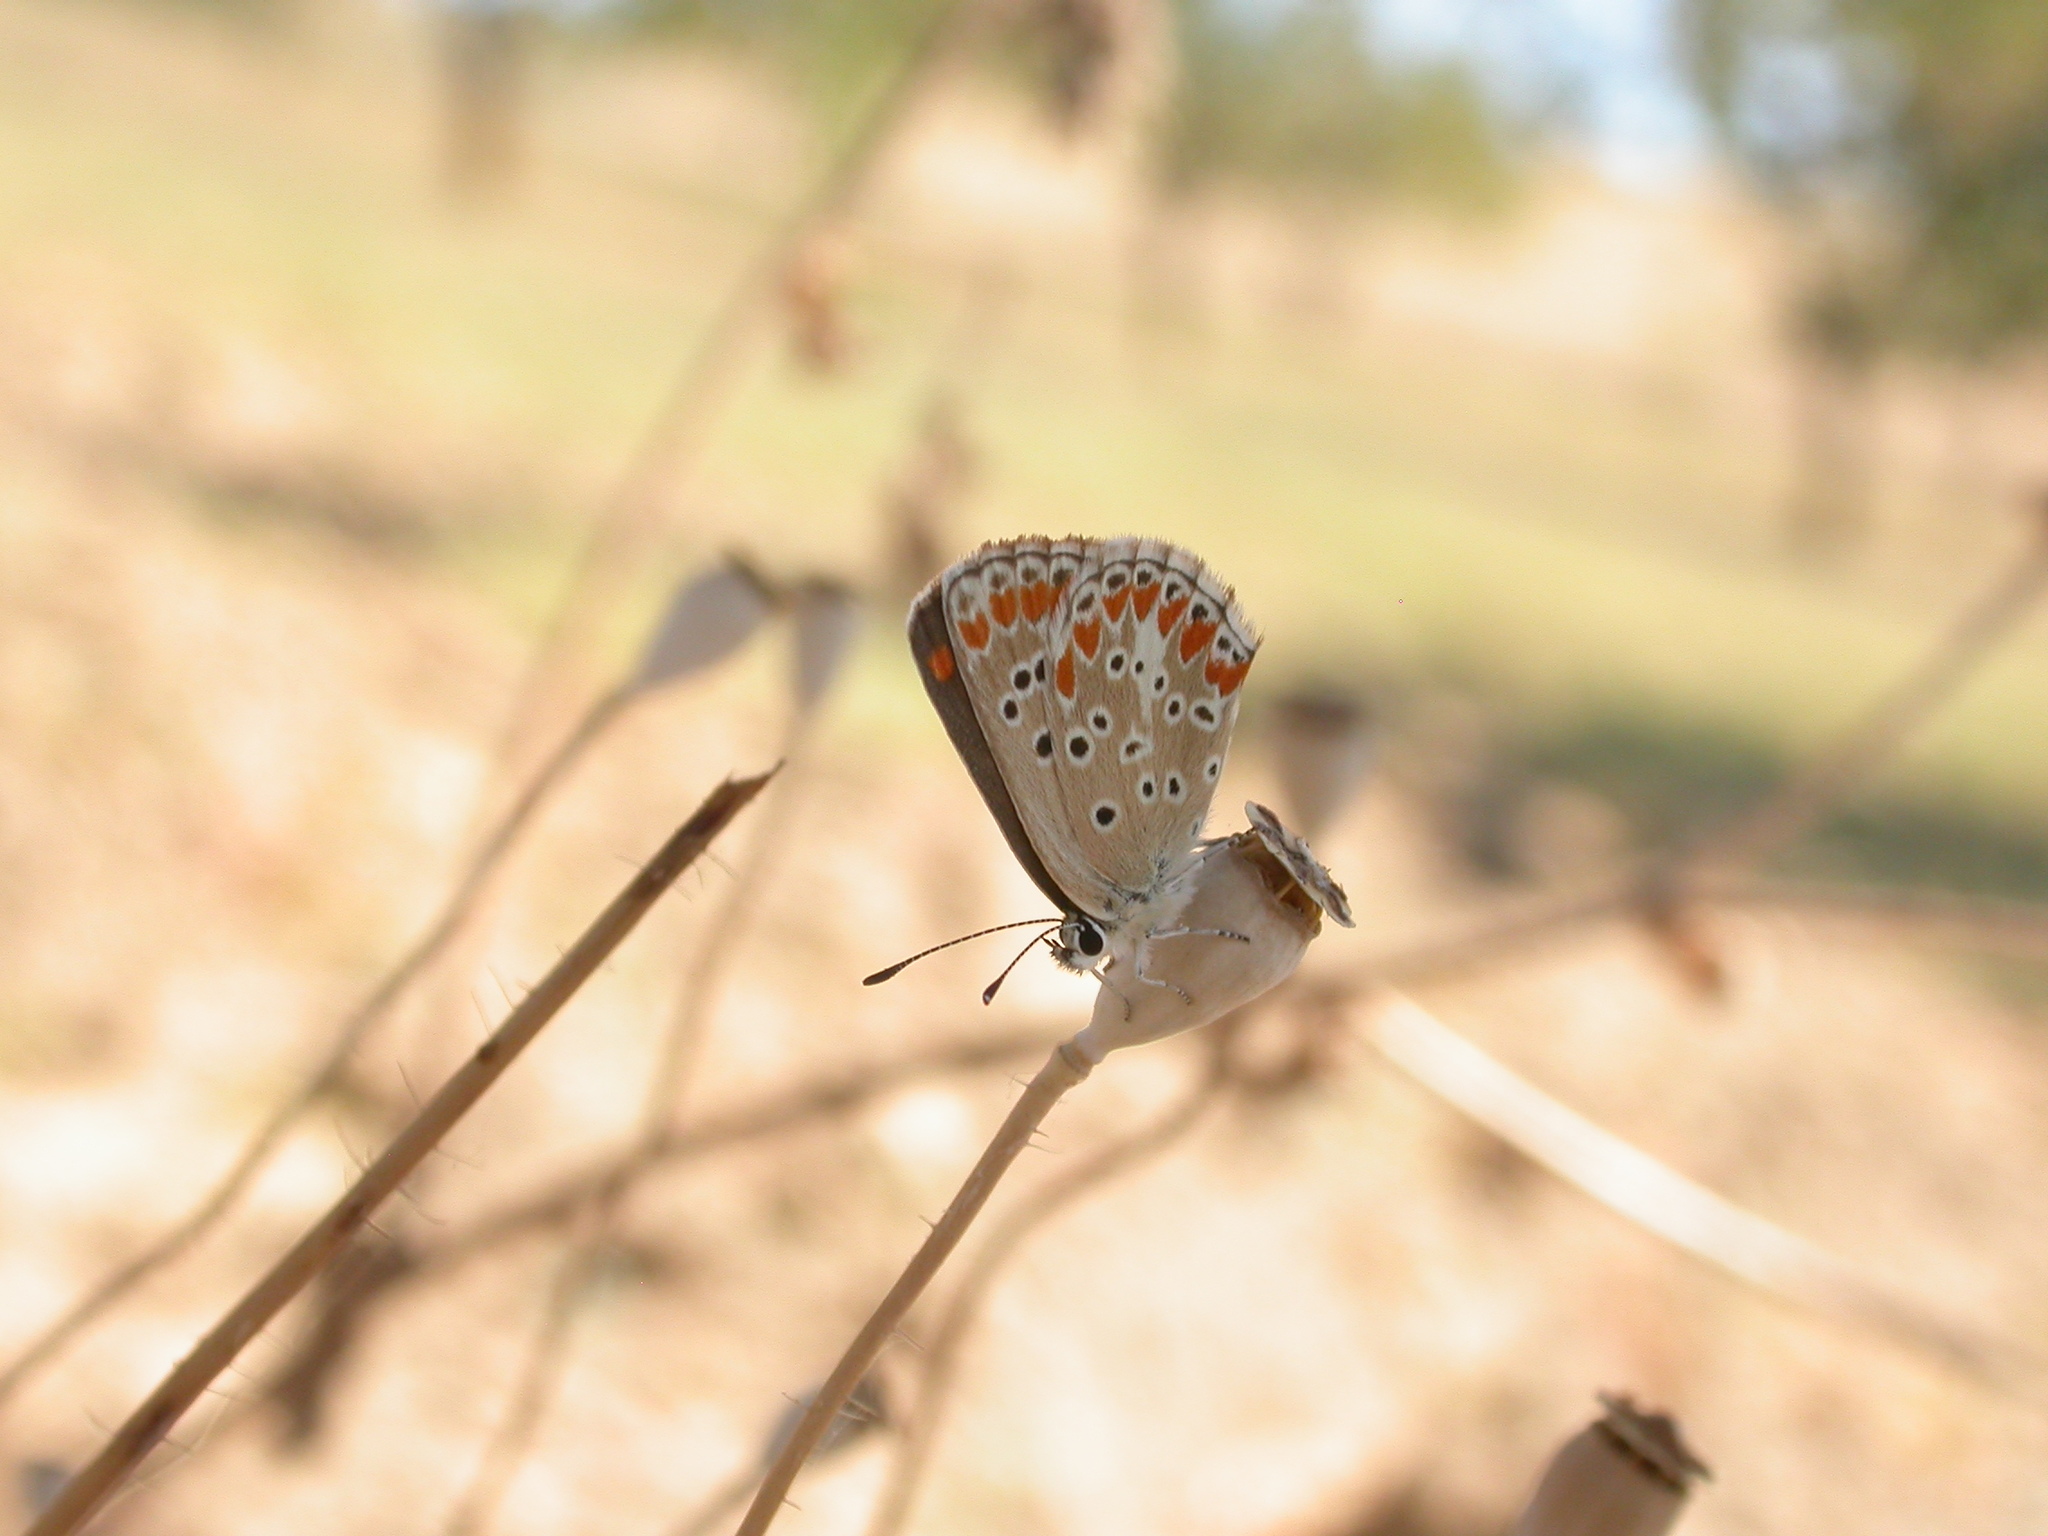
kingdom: Animalia
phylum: Arthropoda
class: Insecta
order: Lepidoptera
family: Lycaenidae
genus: Aricia
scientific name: Aricia agestis
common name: Brown argus
